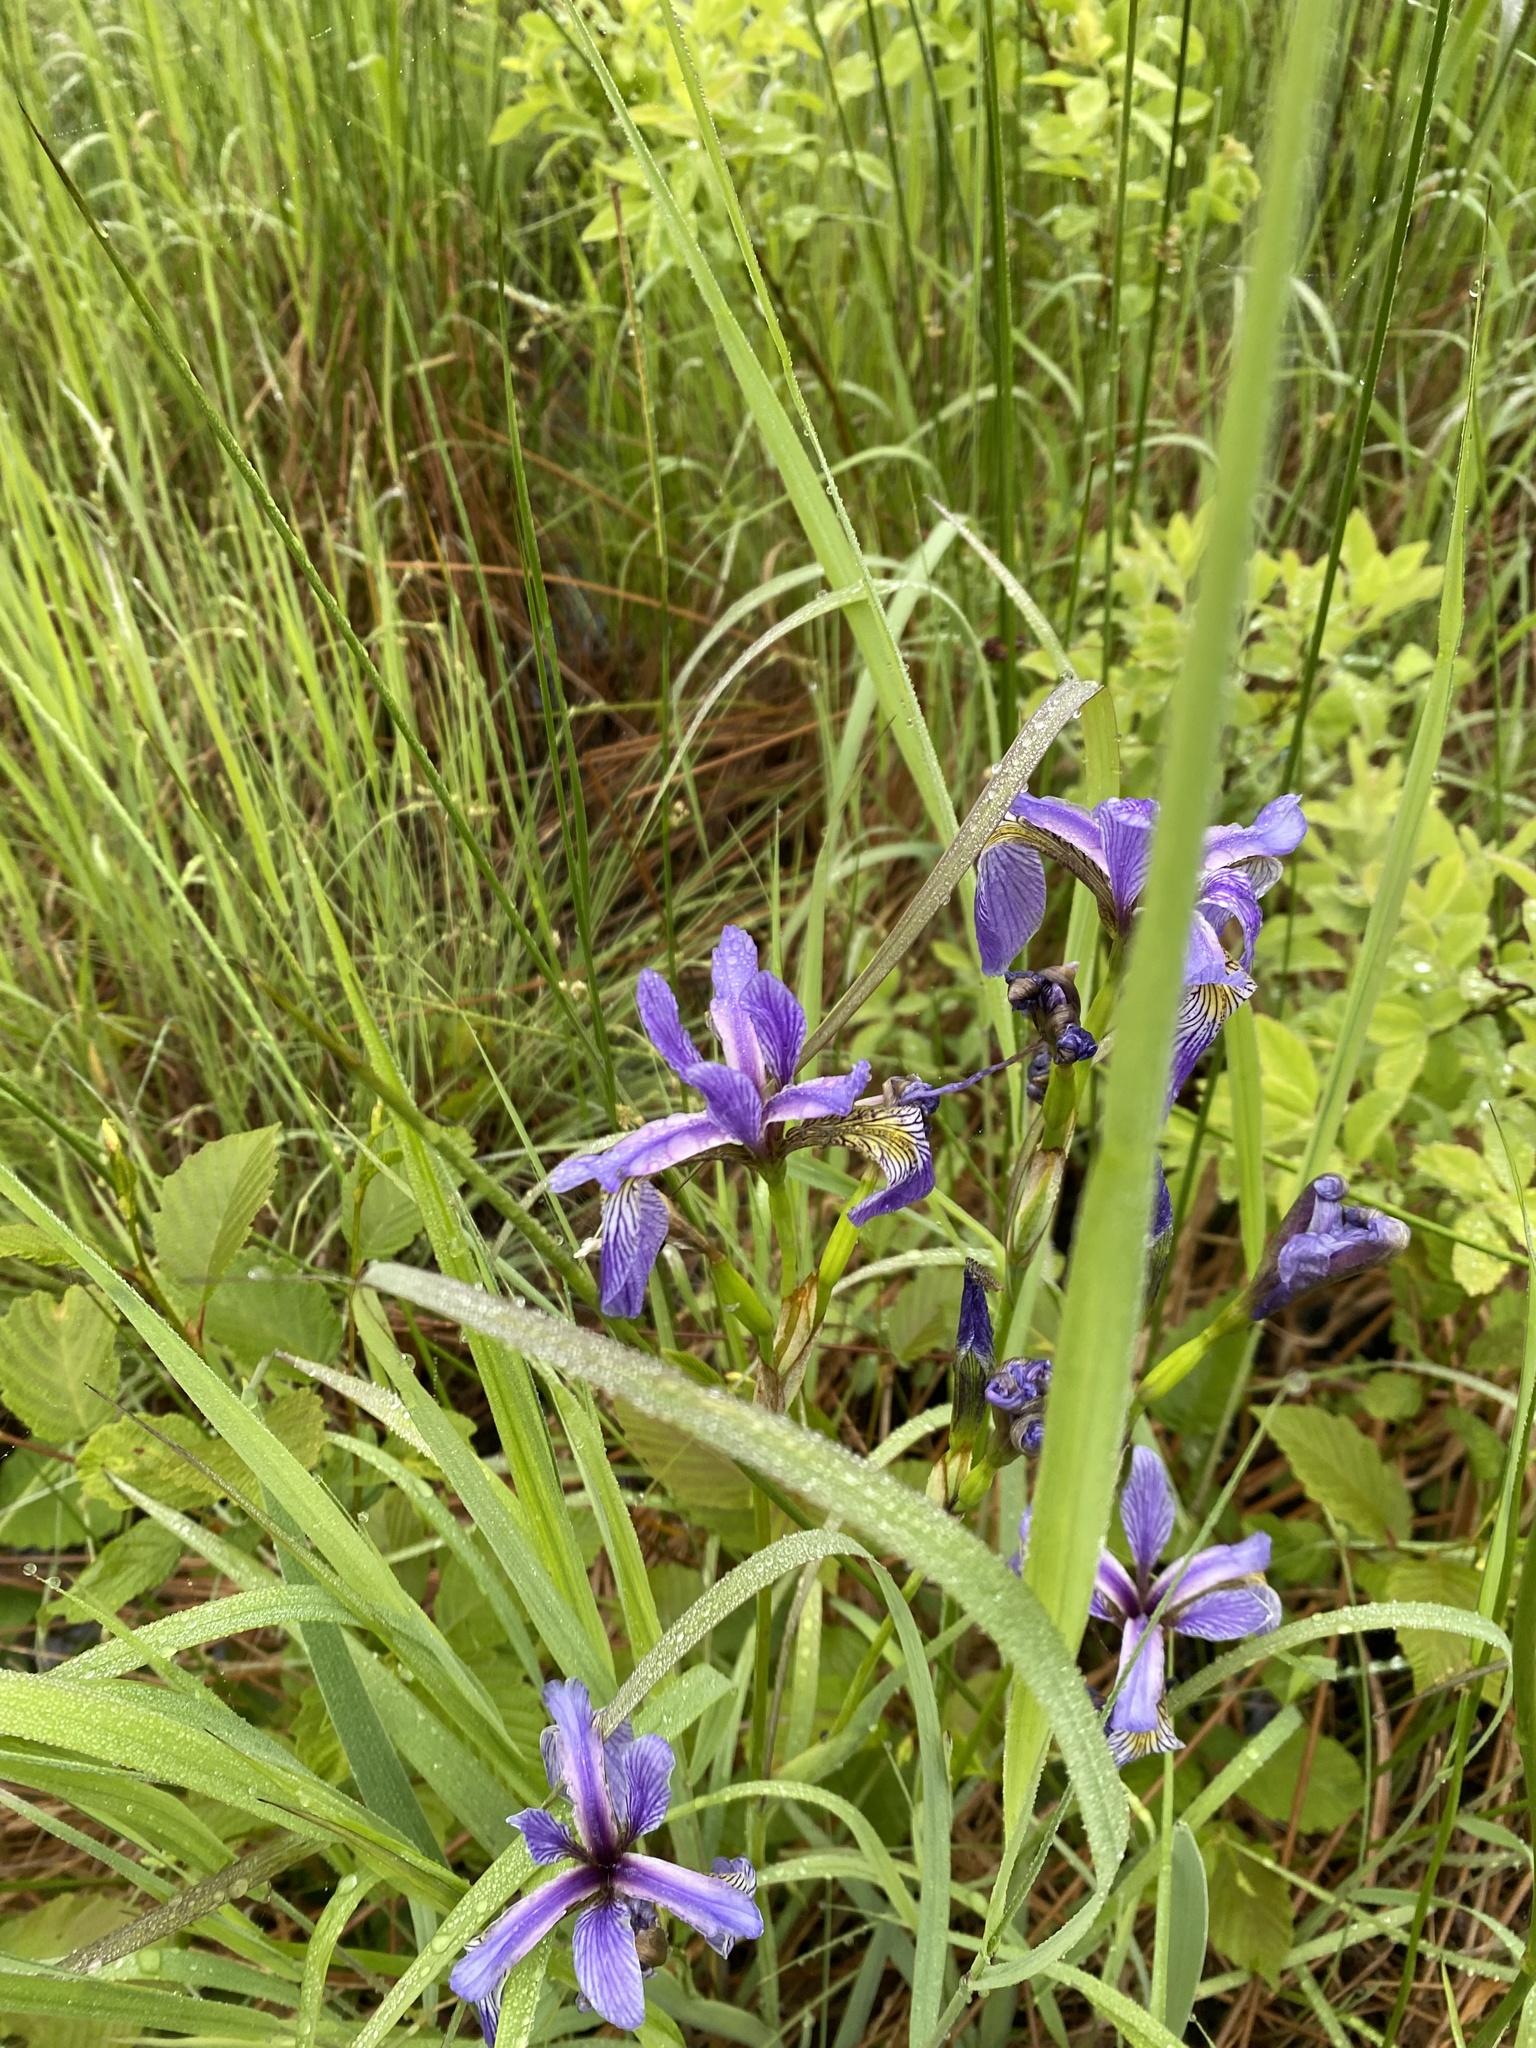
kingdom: Plantae
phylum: Tracheophyta
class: Liliopsida
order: Asparagales
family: Iridaceae
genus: Iris
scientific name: Iris versicolor
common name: Purple iris
